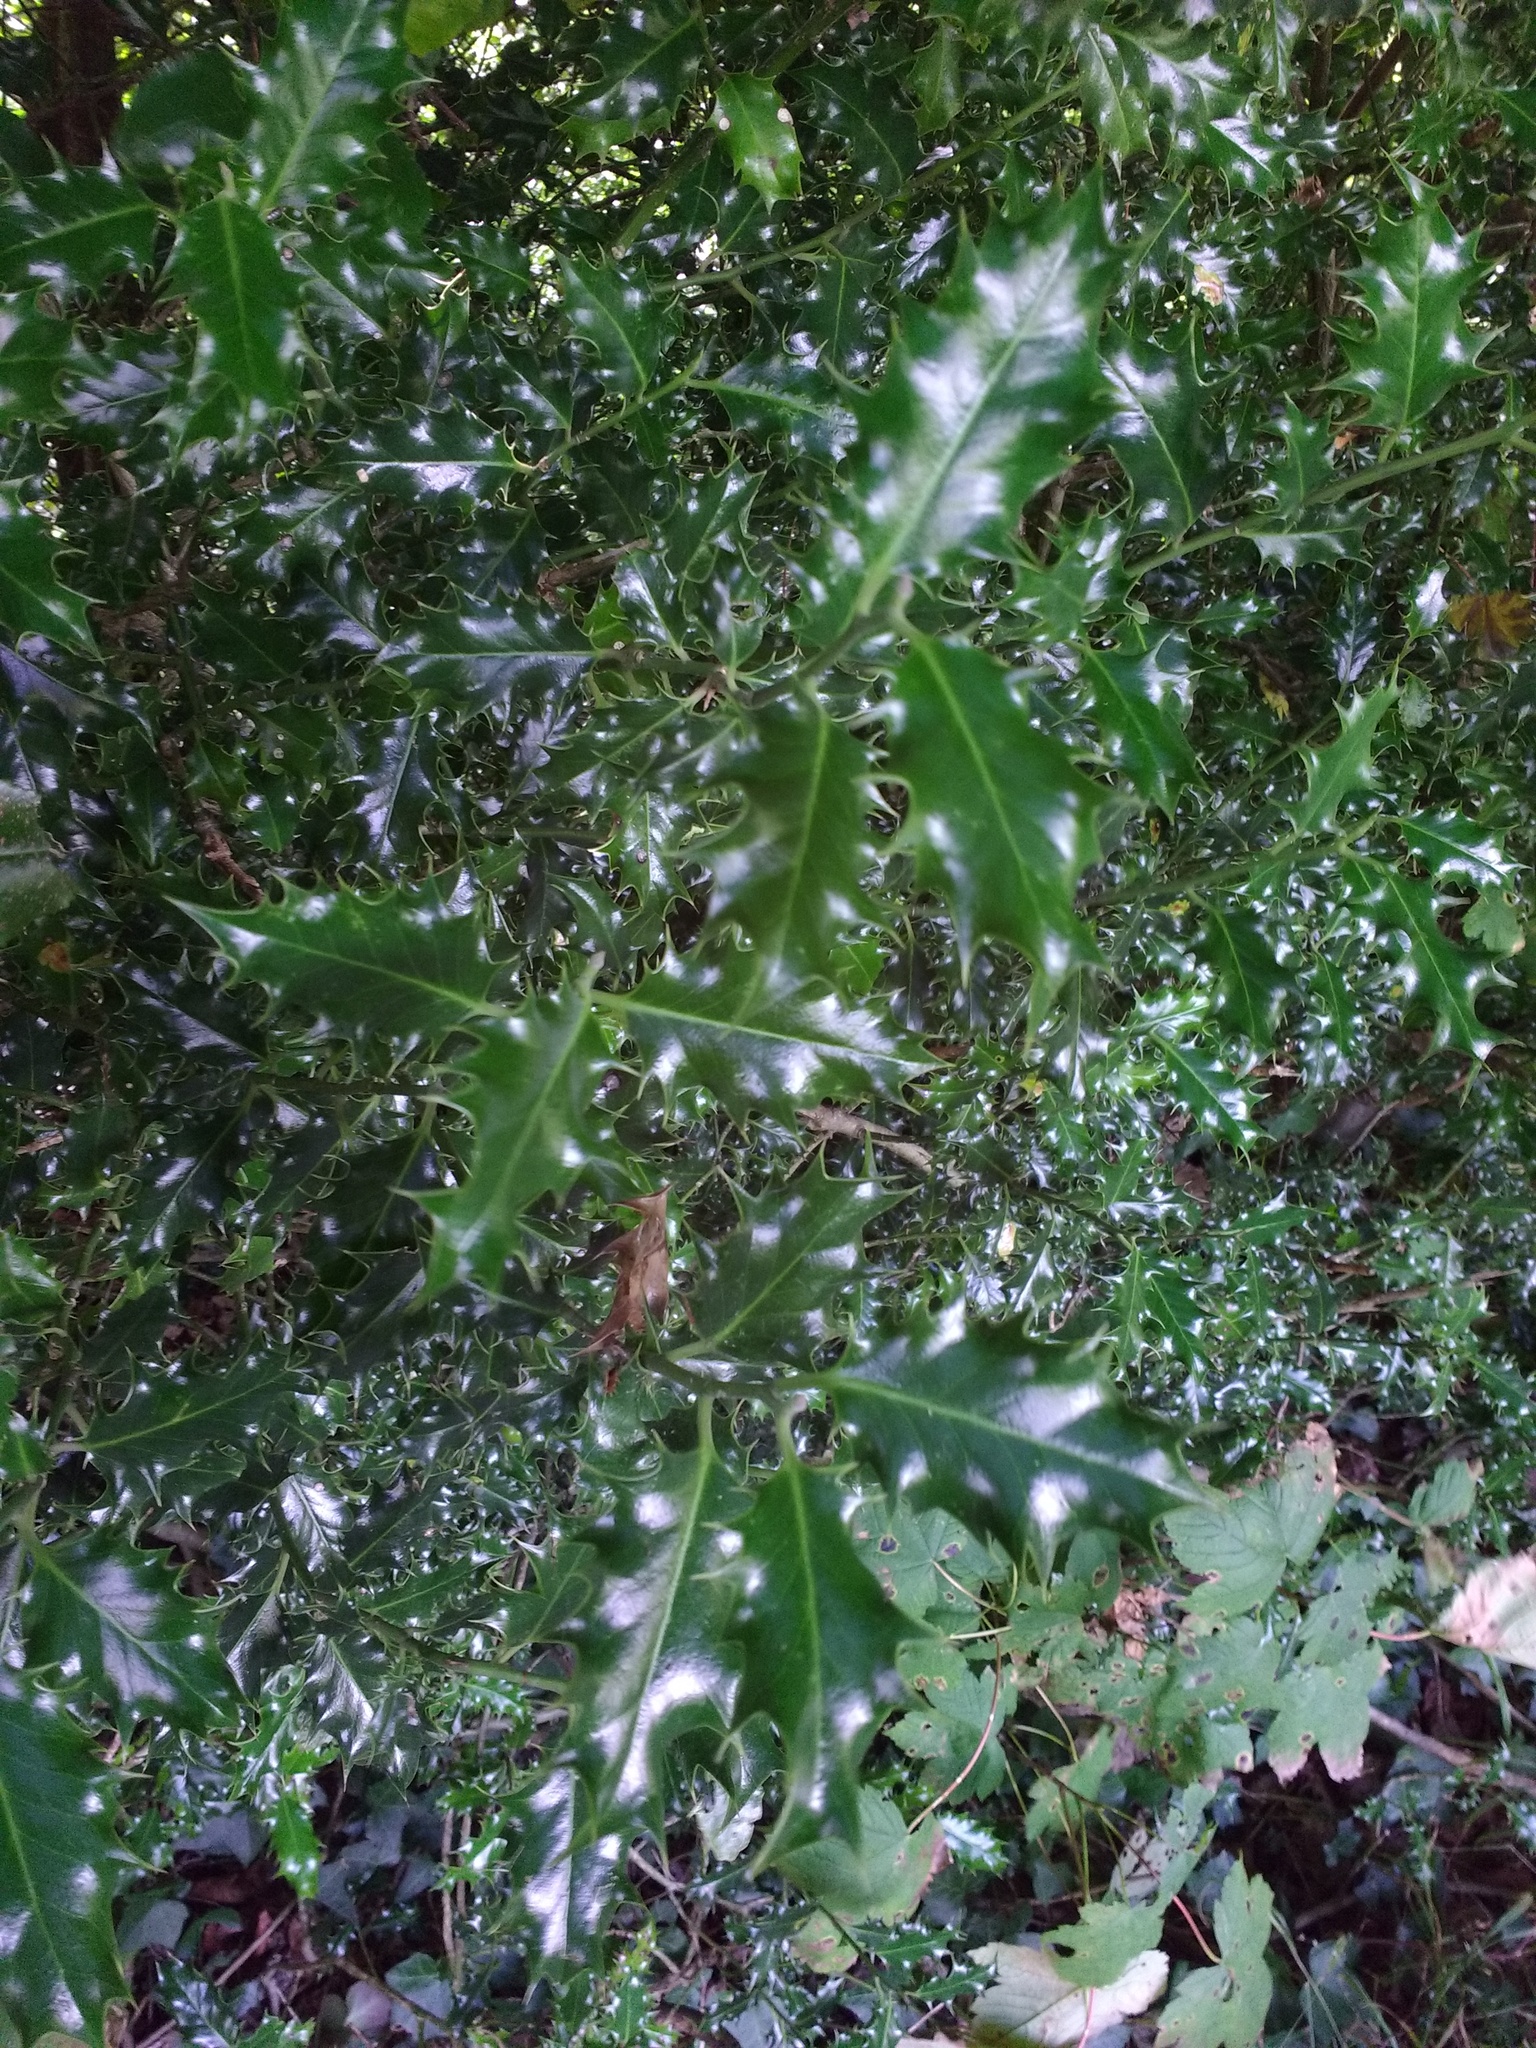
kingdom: Plantae
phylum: Tracheophyta
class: Magnoliopsida
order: Aquifoliales
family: Aquifoliaceae
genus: Ilex
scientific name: Ilex aquifolium
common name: English holly
